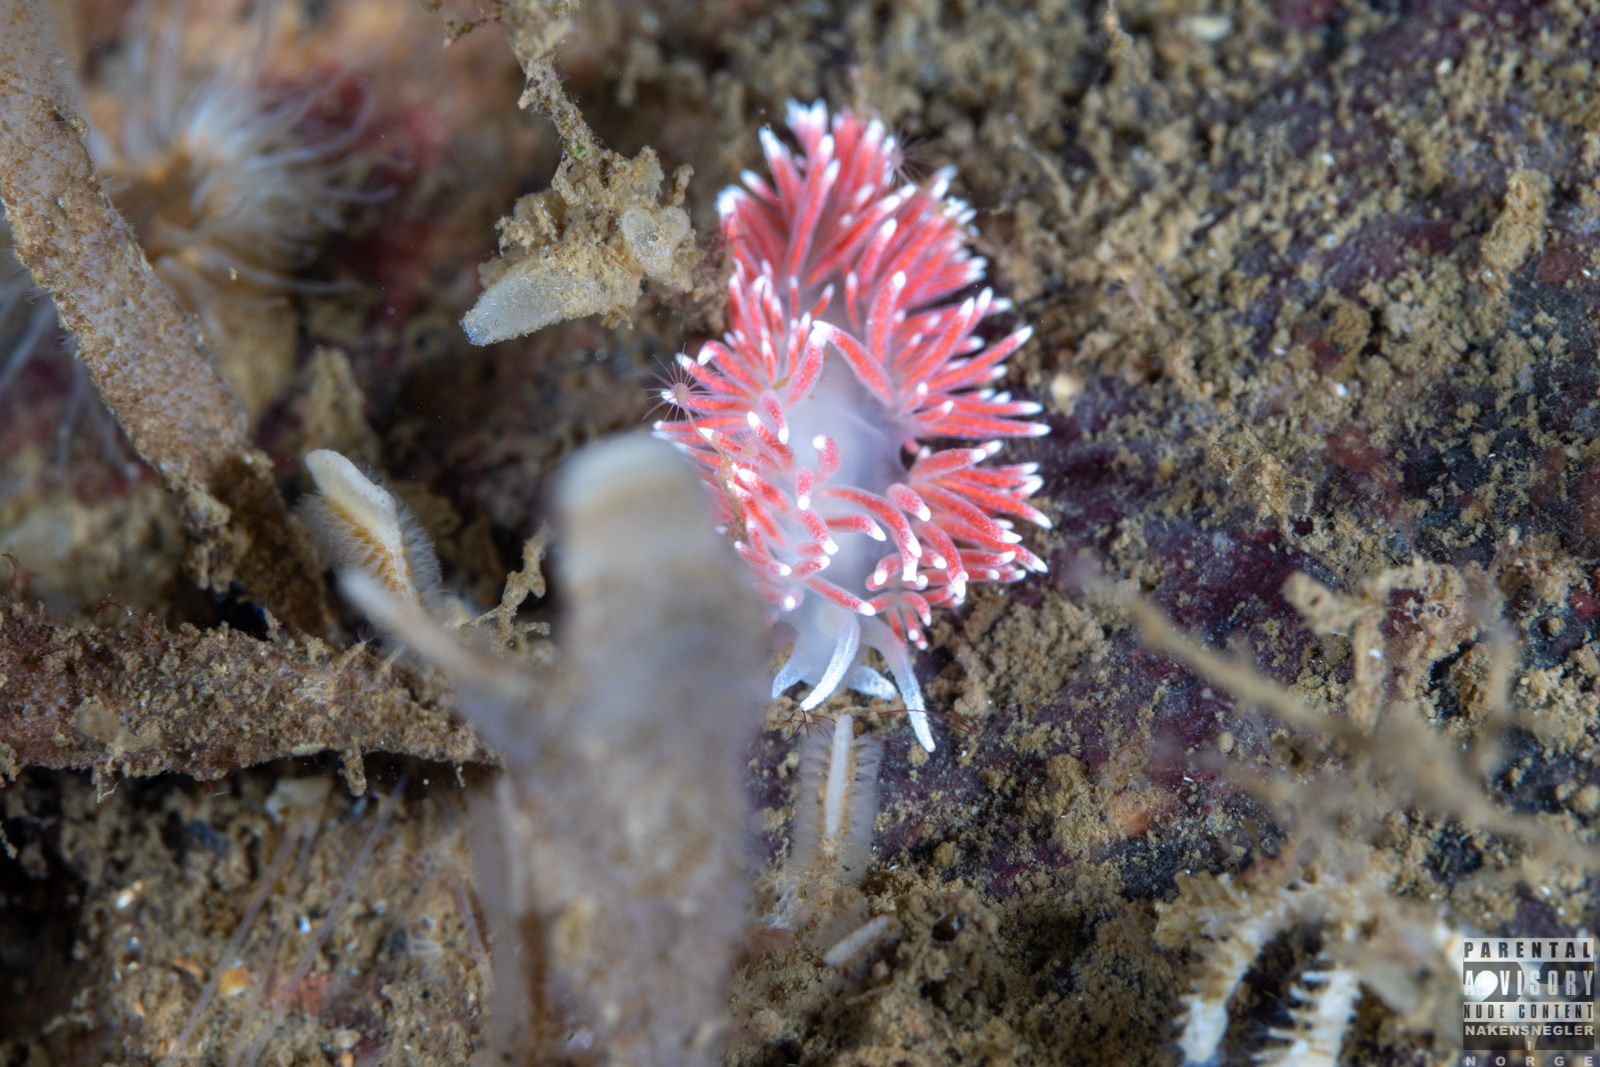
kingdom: Animalia
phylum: Mollusca
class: Gastropoda
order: Nudibranchia
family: Flabellinidae
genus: Carronella
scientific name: Carronella pellucida
